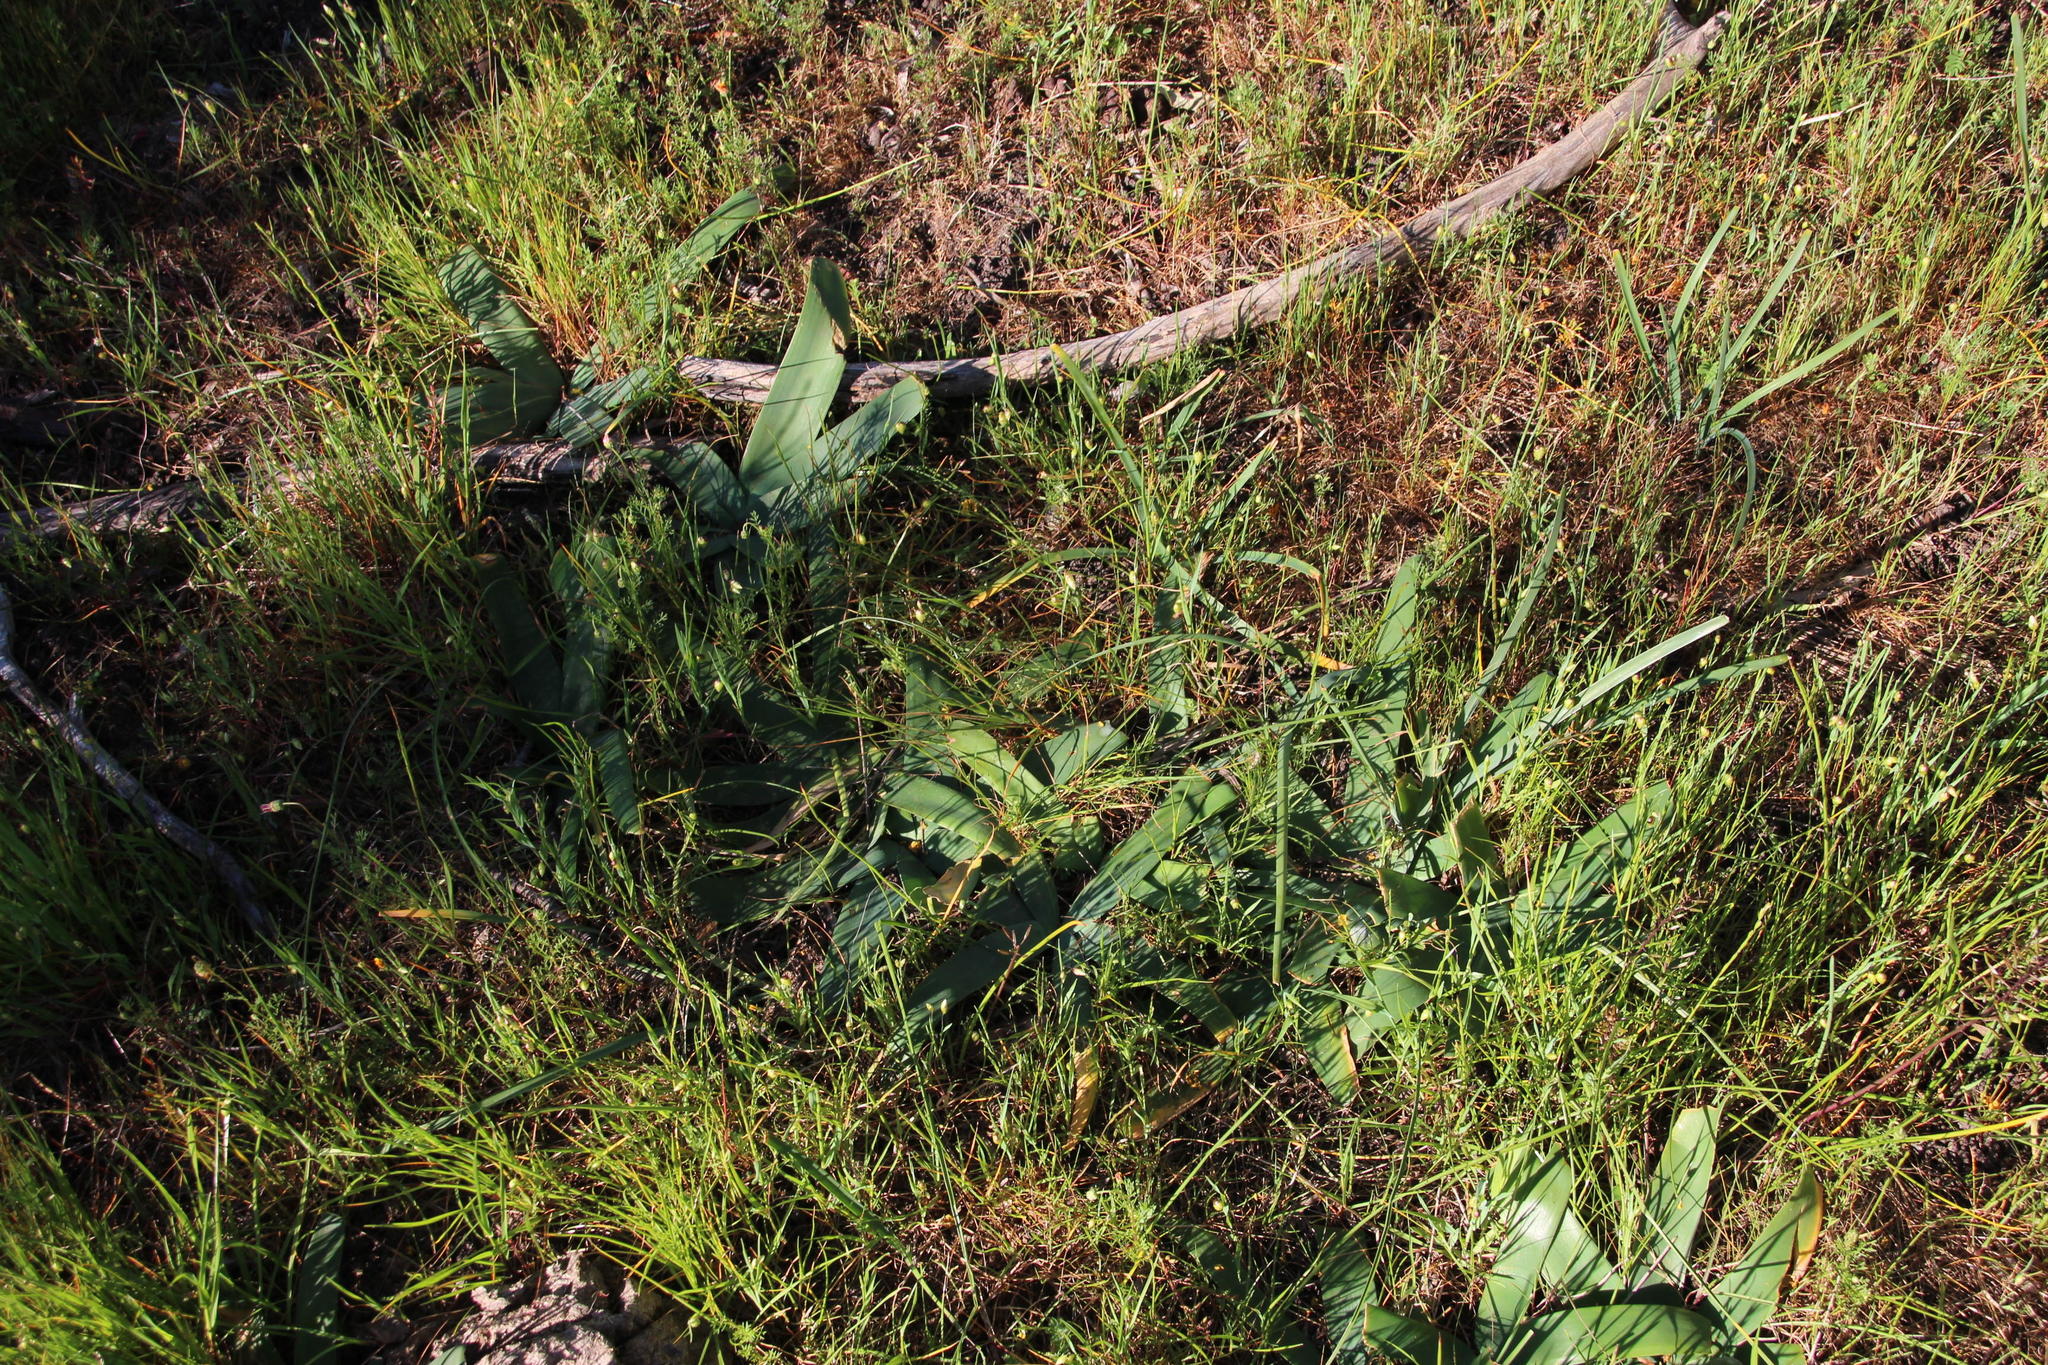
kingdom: Plantae
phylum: Tracheophyta
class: Liliopsida
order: Asparagales
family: Amaryllidaceae
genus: Crossyne
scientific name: Crossyne guttata
